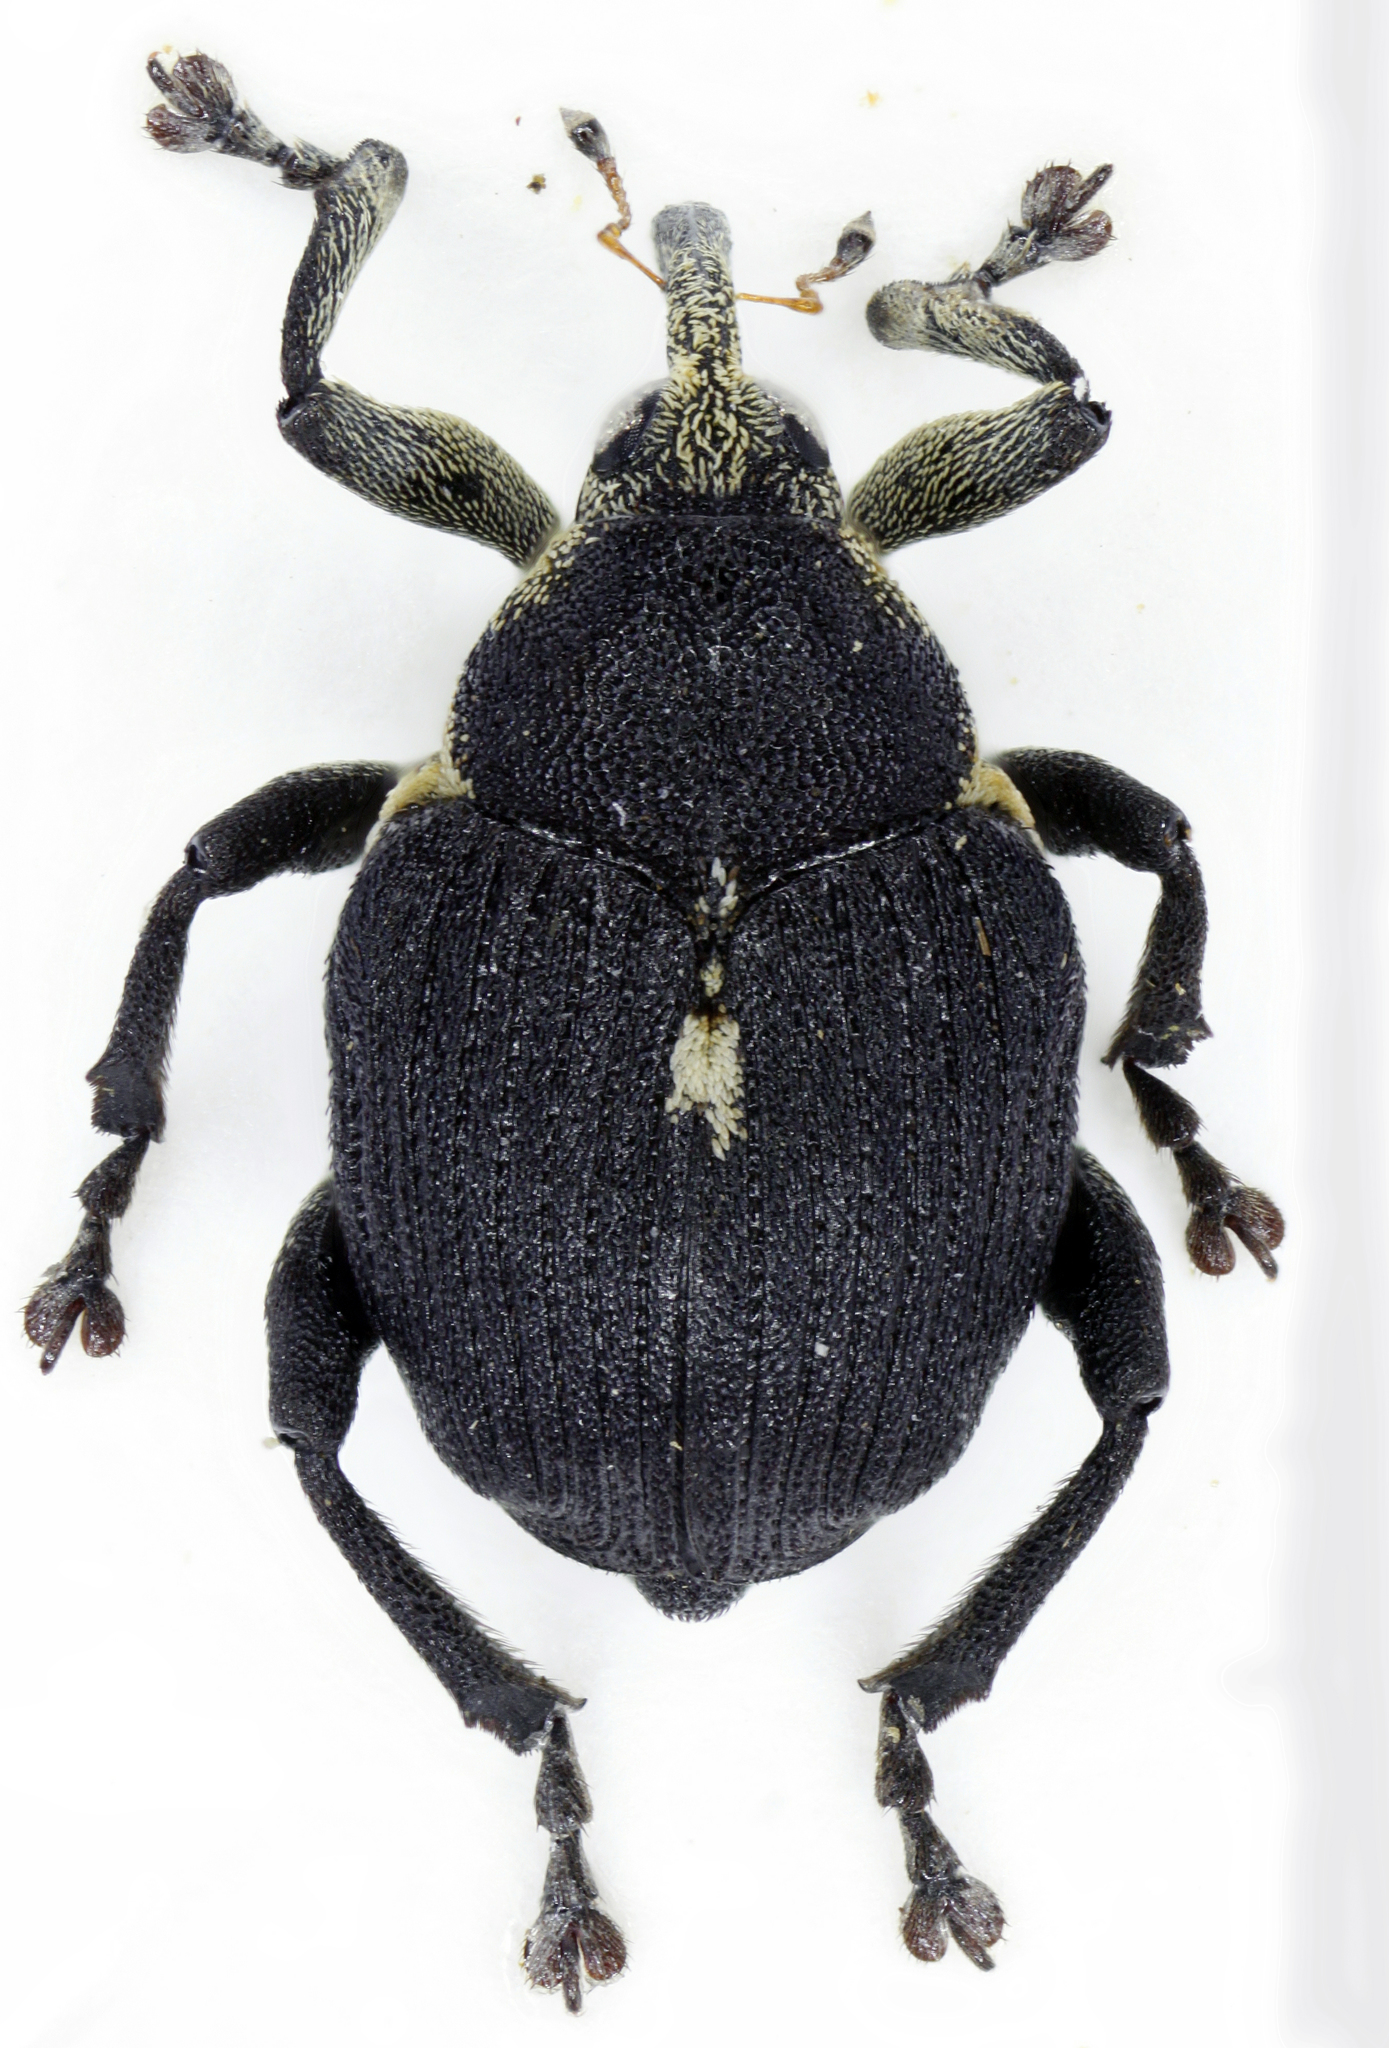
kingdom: Animalia
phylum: Arthropoda
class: Insecta
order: Coleoptera
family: Curculionidae
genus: Mononychus
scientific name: Mononychus punctumalbum
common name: Iris weevil
